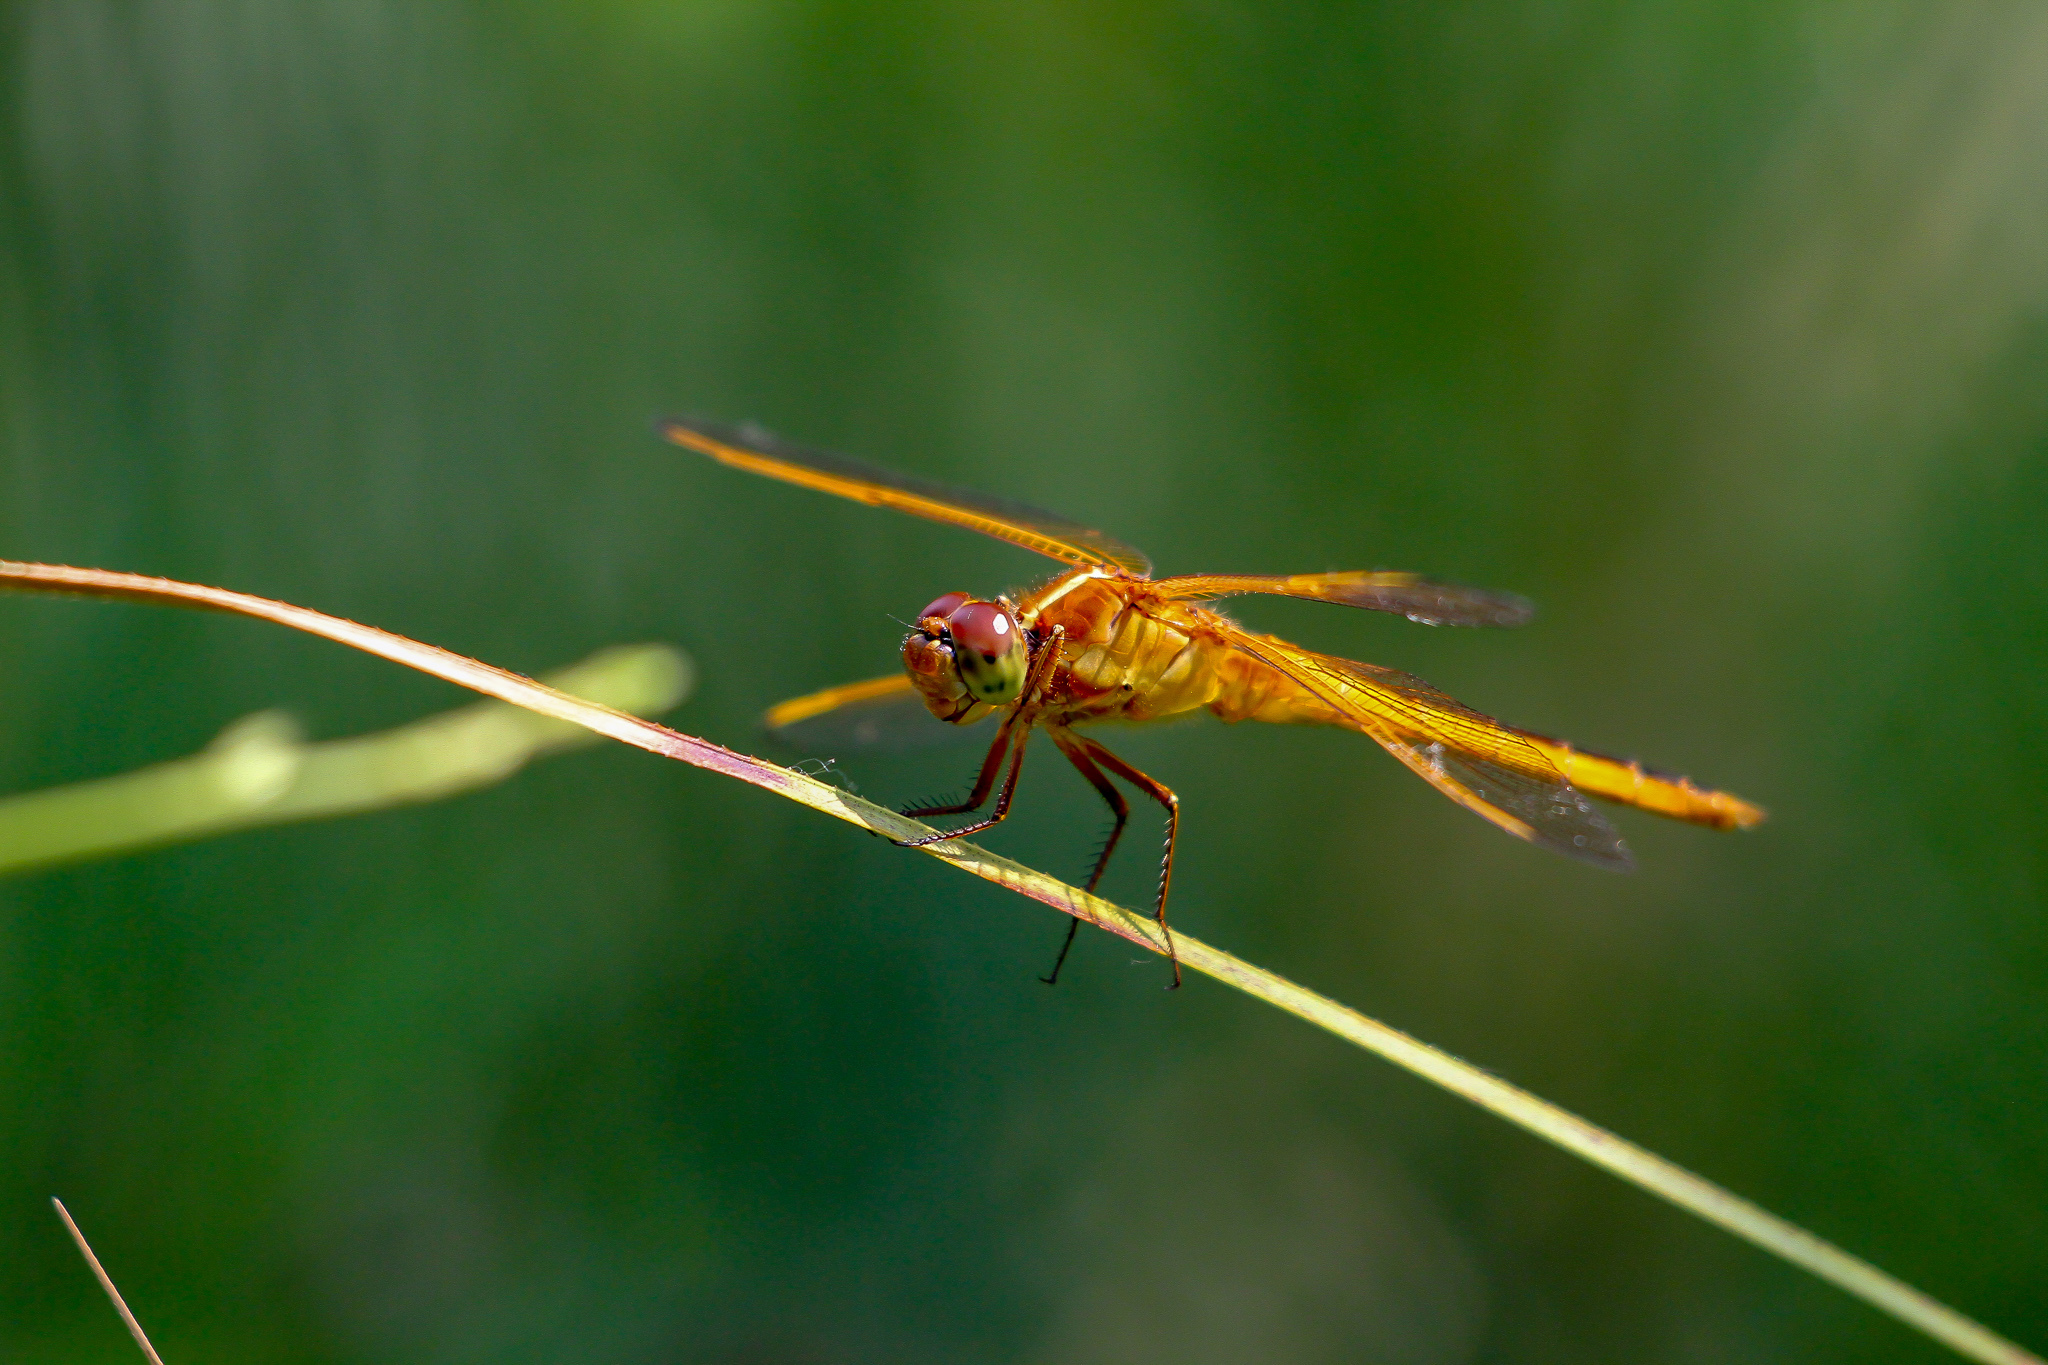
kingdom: Animalia
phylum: Arthropoda
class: Insecta
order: Odonata
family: Libellulidae
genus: Libellula
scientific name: Libellula needhami
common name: Needham's skimmer
